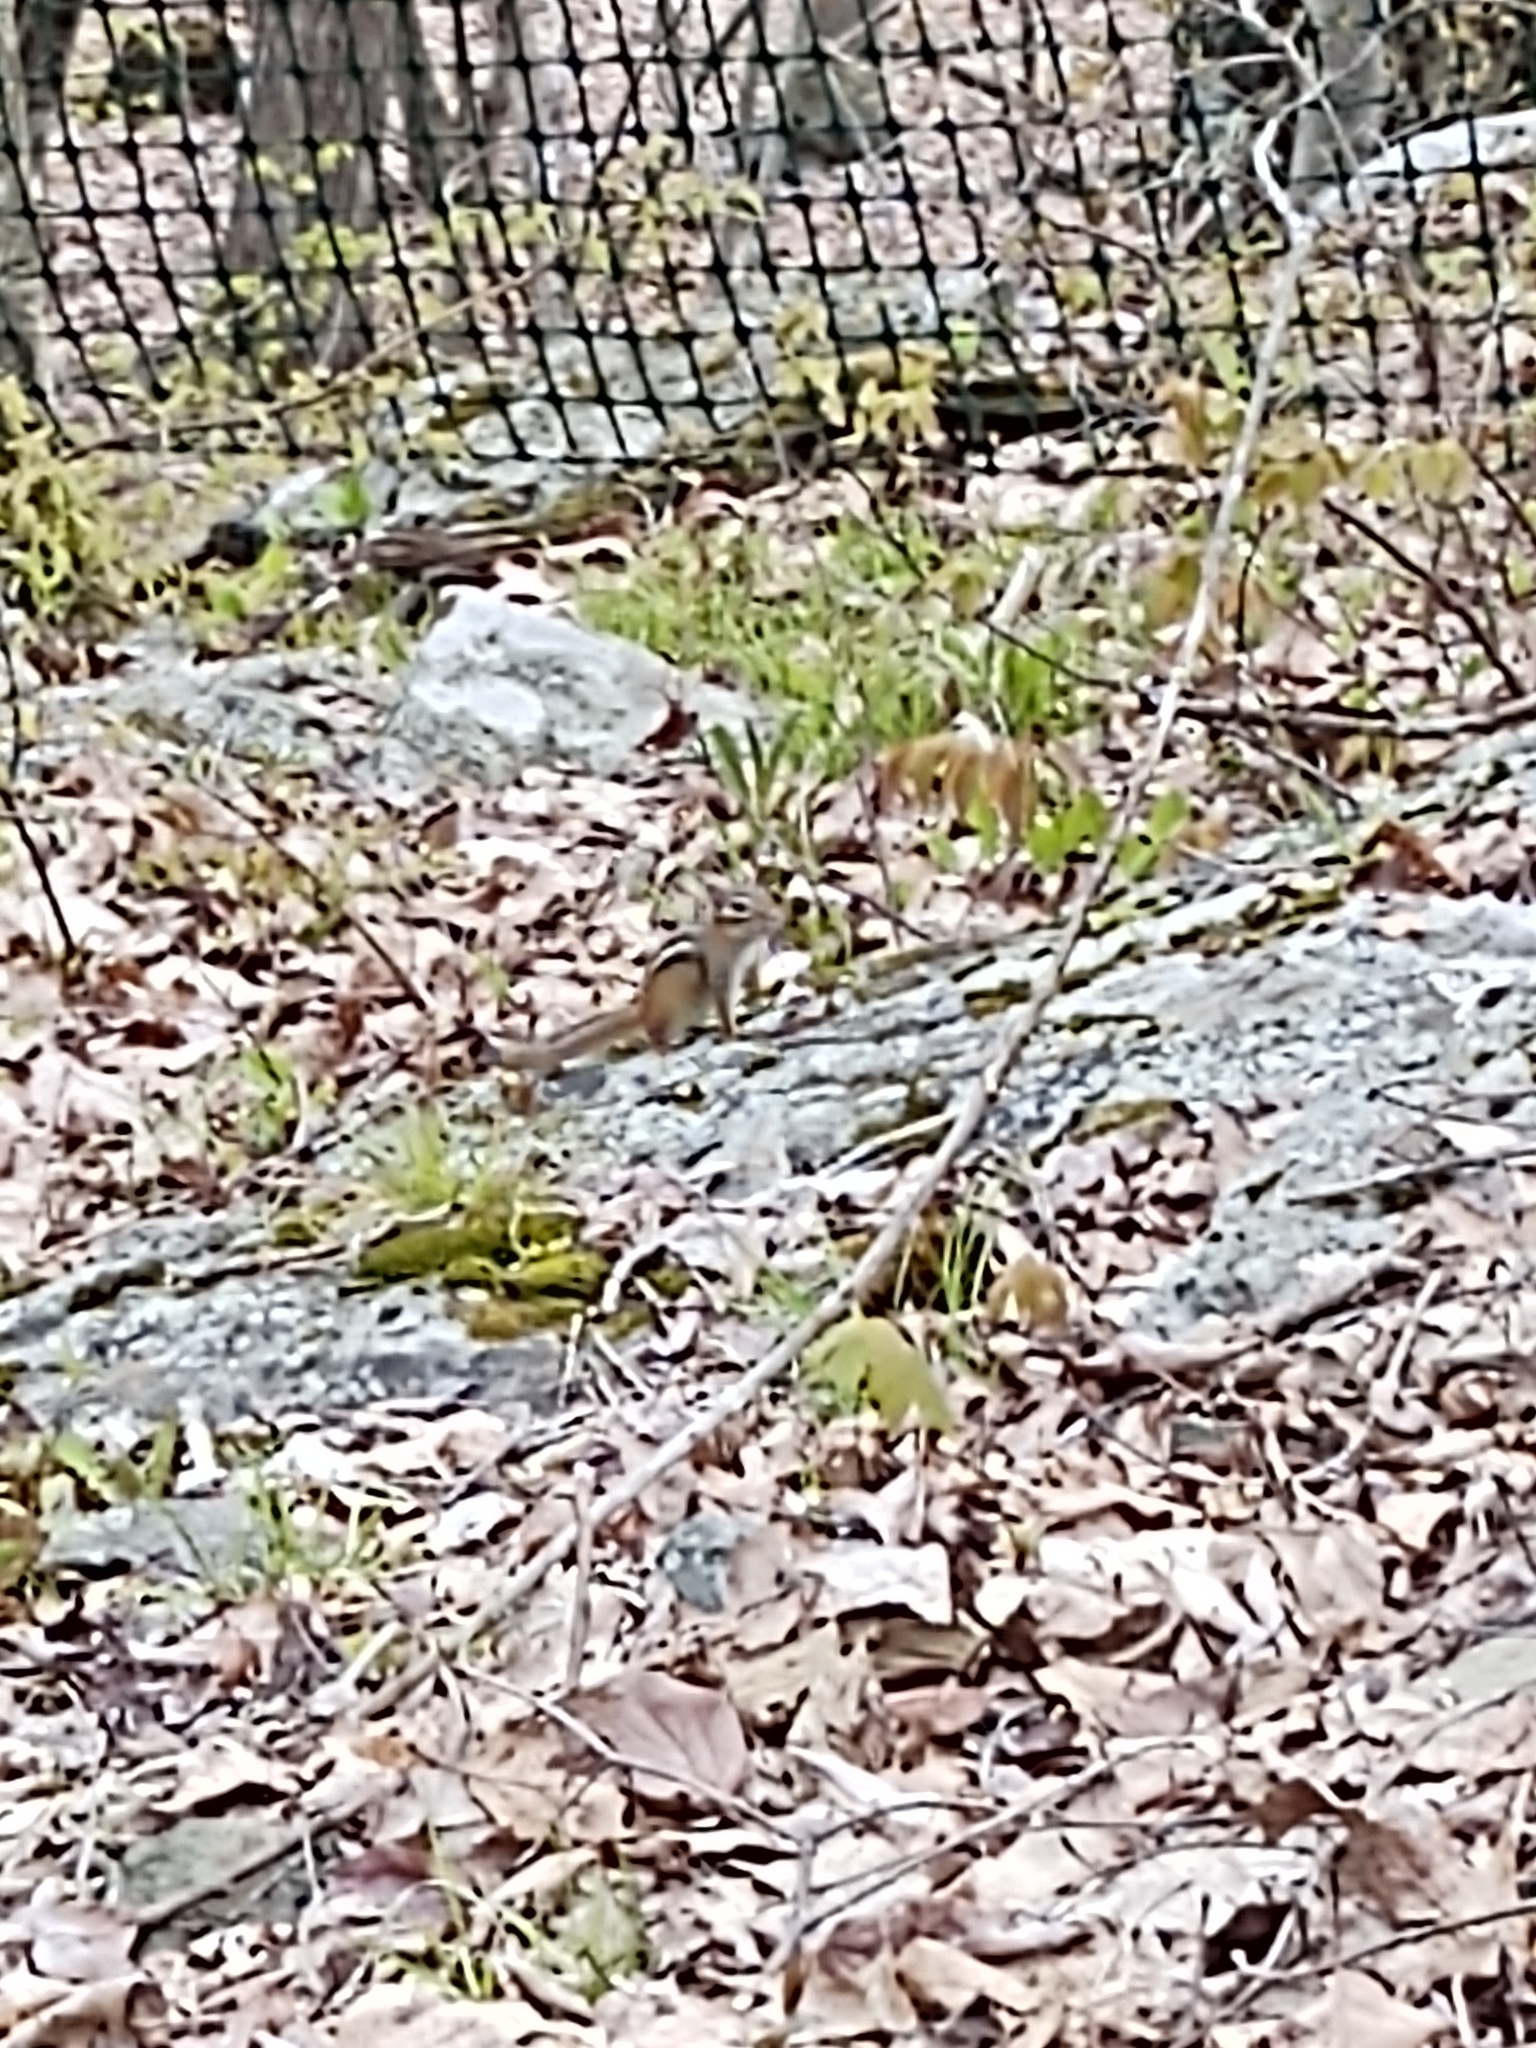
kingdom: Animalia
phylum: Chordata
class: Mammalia
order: Rodentia
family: Sciuridae
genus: Tamias
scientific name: Tamias striatus
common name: Eastern chipmunk
